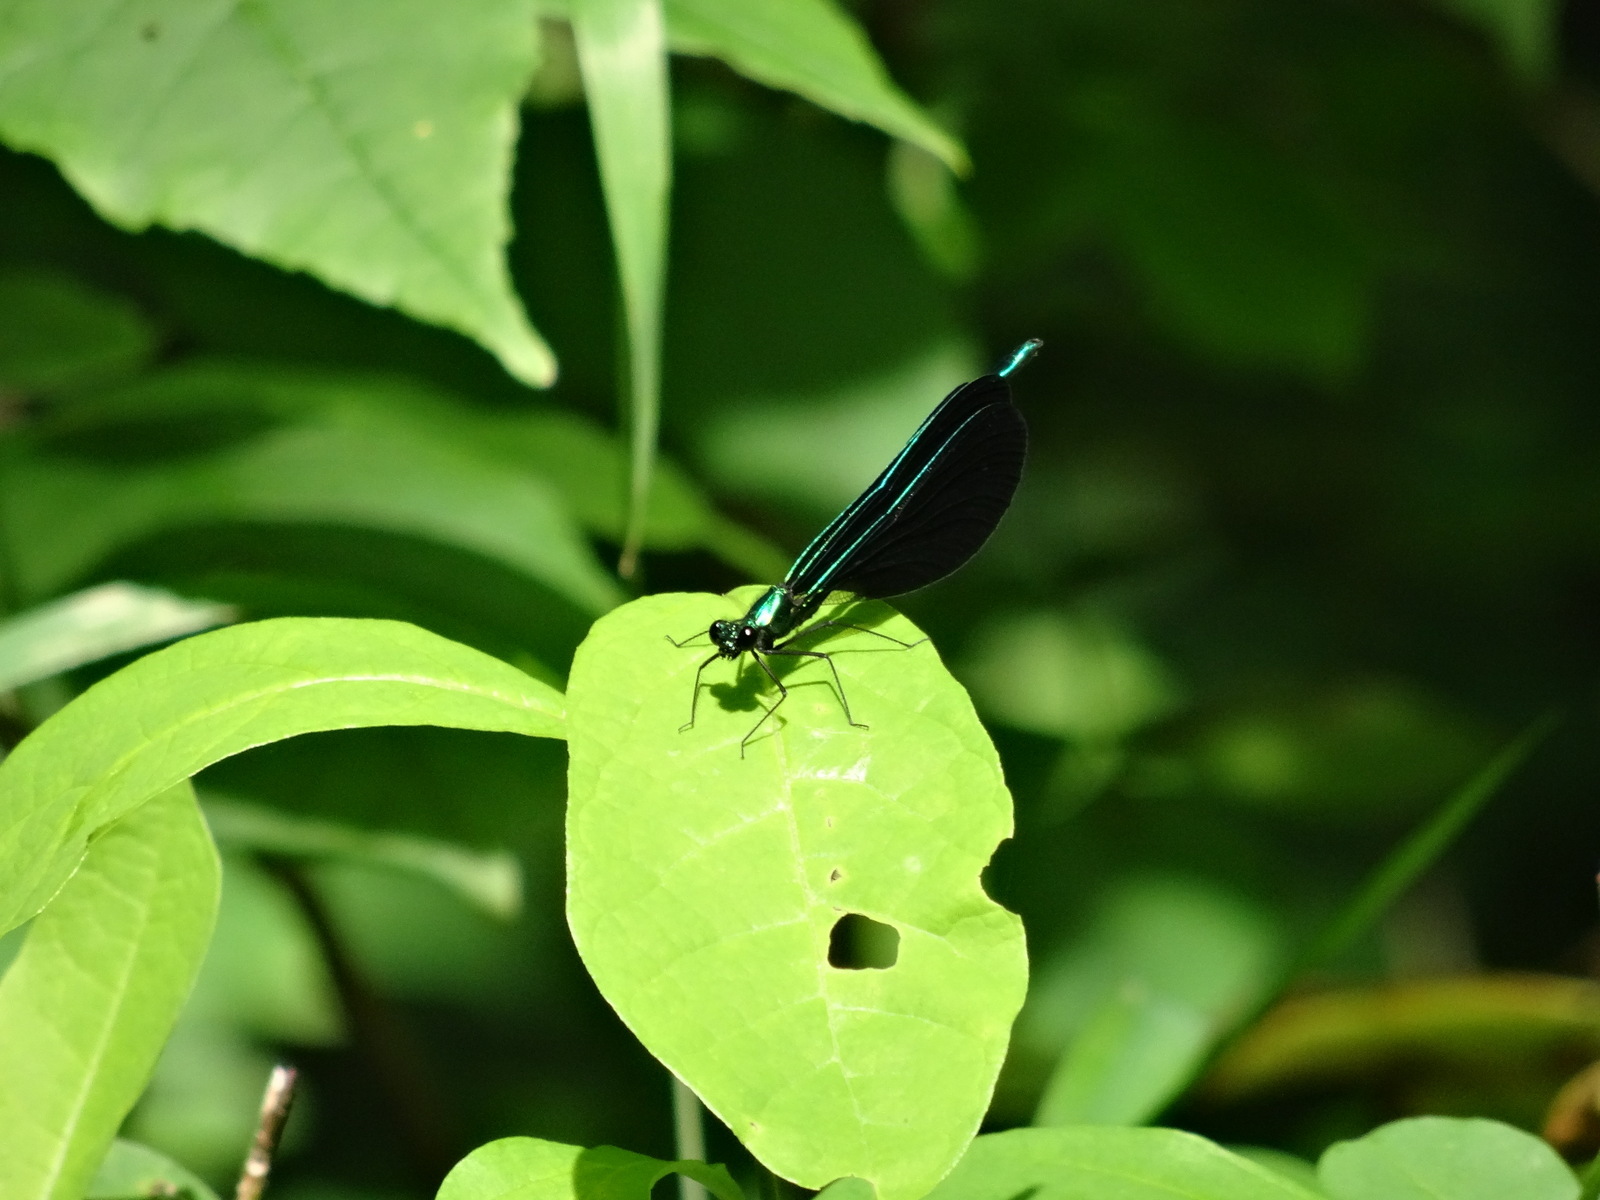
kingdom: Animalia
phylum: Arthropoda
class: Insecta
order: Odonata
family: Calopterygidae
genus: Calopteryx
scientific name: Calopteryx maculata
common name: Ebony jewelwing
